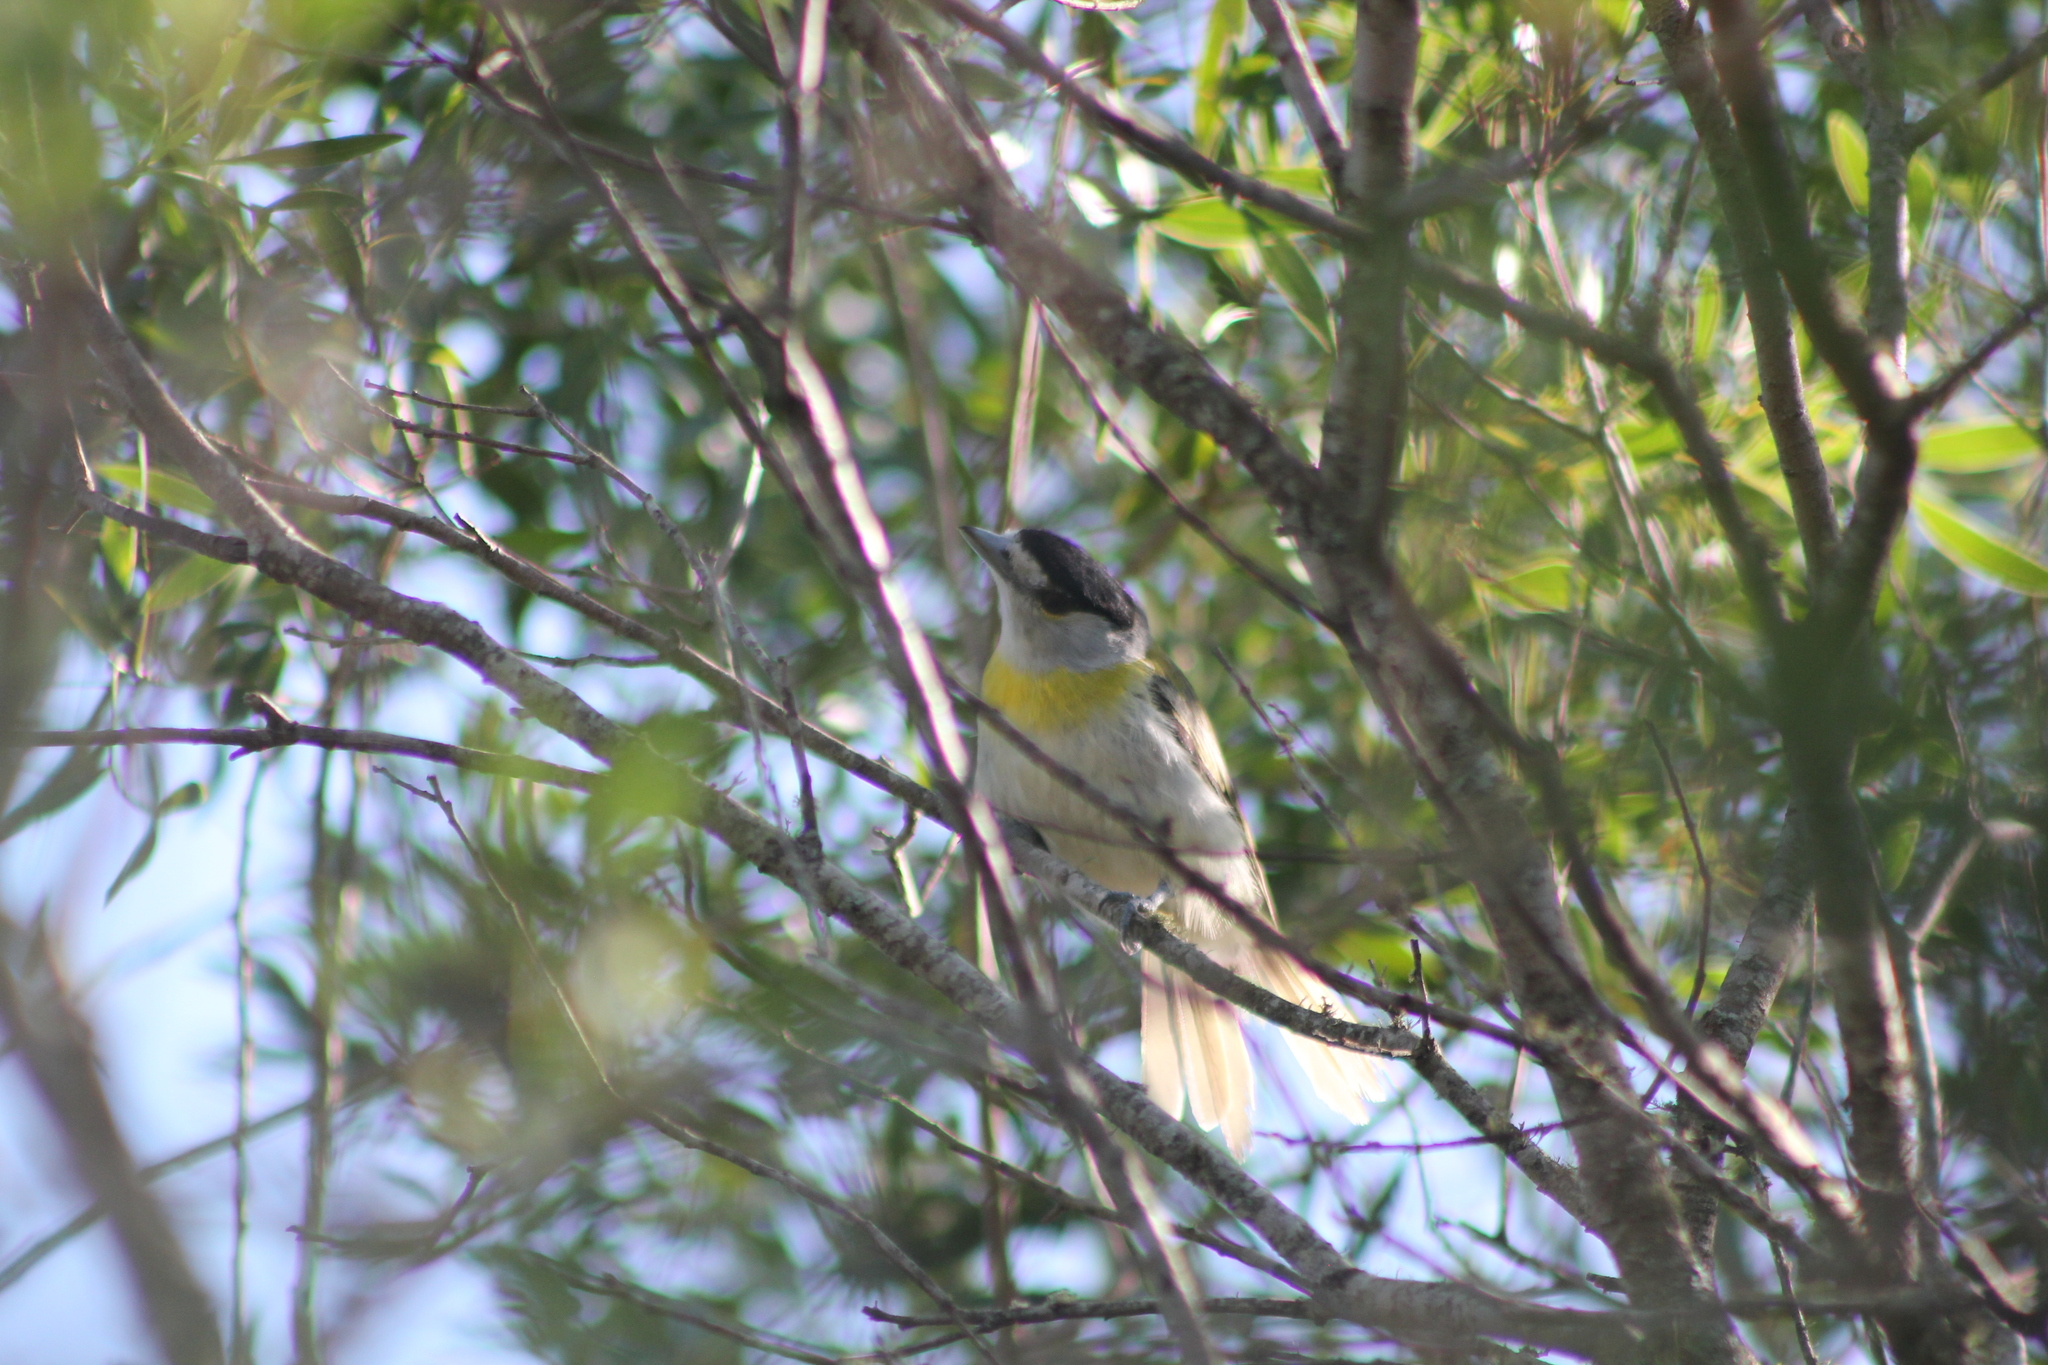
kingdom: Animalia
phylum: Chordata
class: Aves
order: Passeriformes
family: Cotingidae
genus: Pachyramphus
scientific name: Pachyramphus viridis
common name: Green-backed becard
